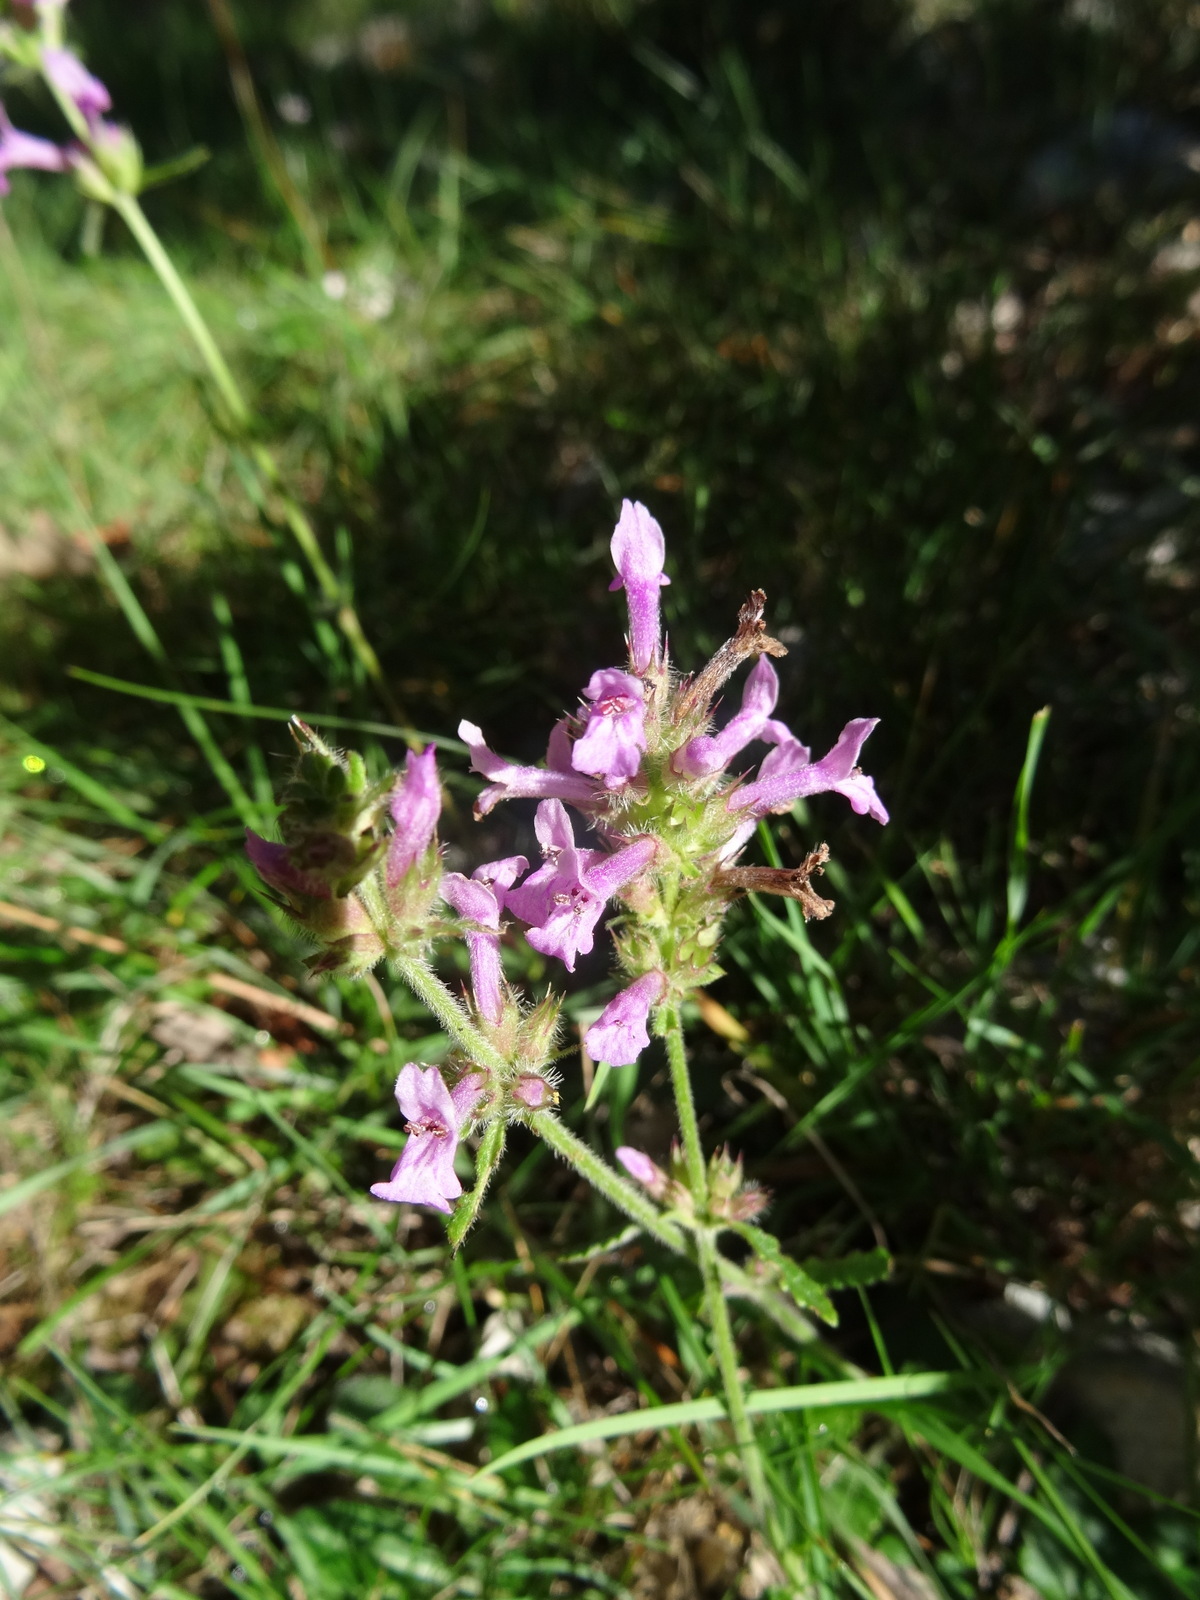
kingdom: Plantae
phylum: Tracheophyta
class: Magnoliopsida
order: Lamiales
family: Lamiaceae
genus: Betonica
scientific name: Betonica officinalis
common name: Bishop's-wort
